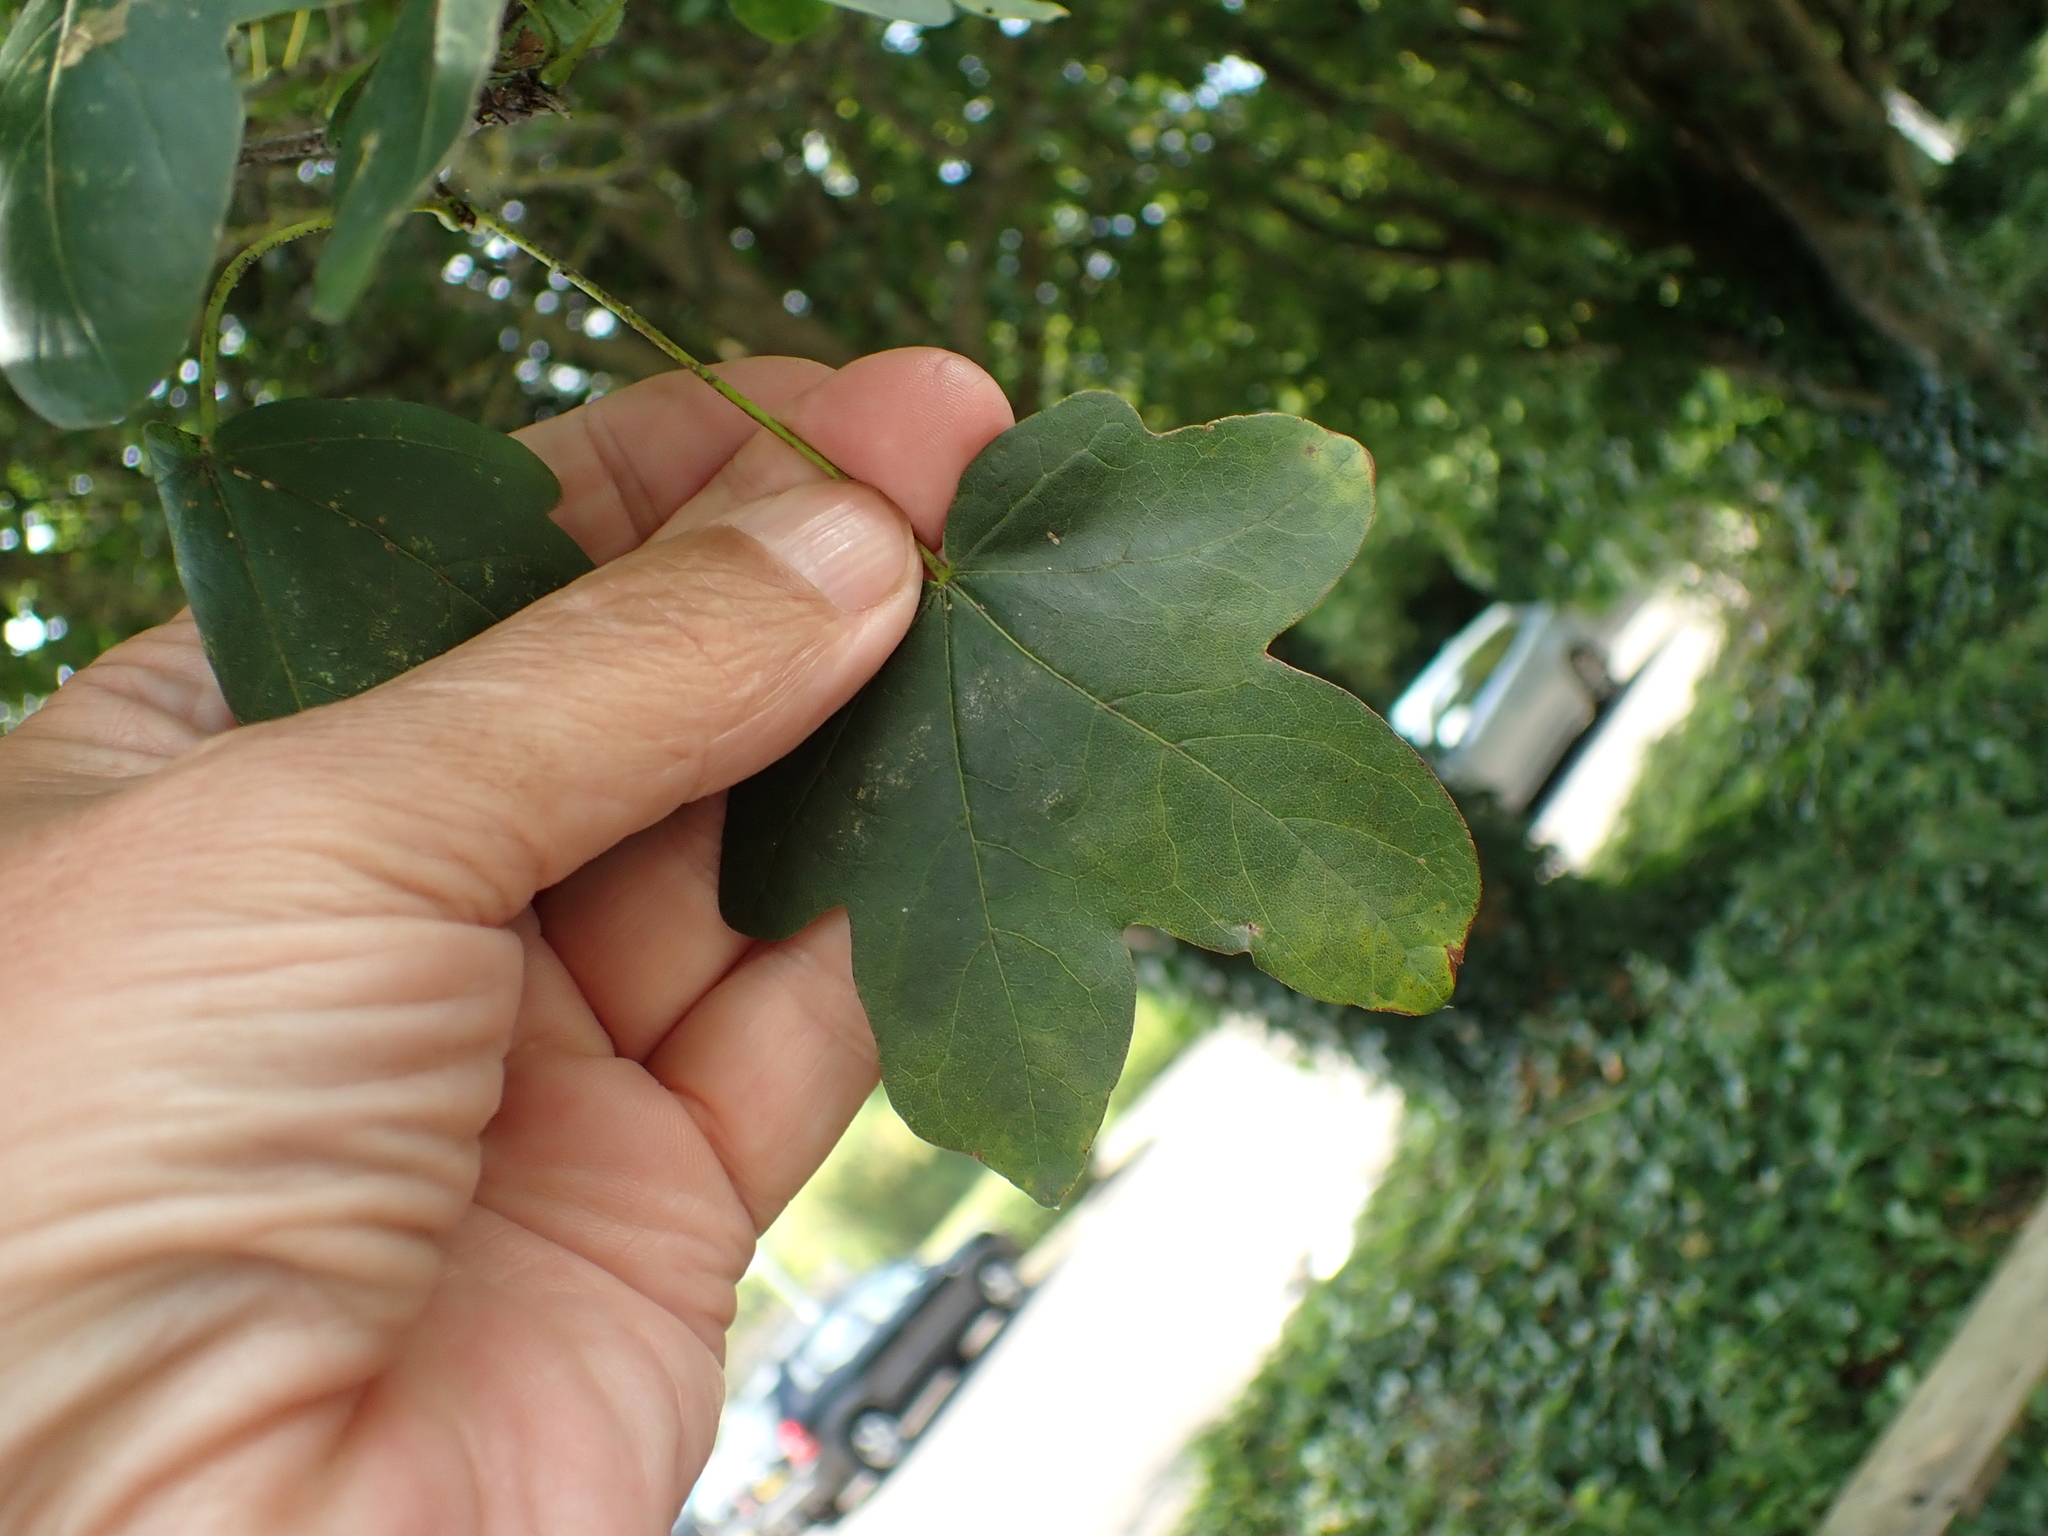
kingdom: Plantae
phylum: Tracheophyta
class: Magnoliopsida
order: Sapindales
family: Sapindaceae
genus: Acer
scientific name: Acer campestre
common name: Field maple
